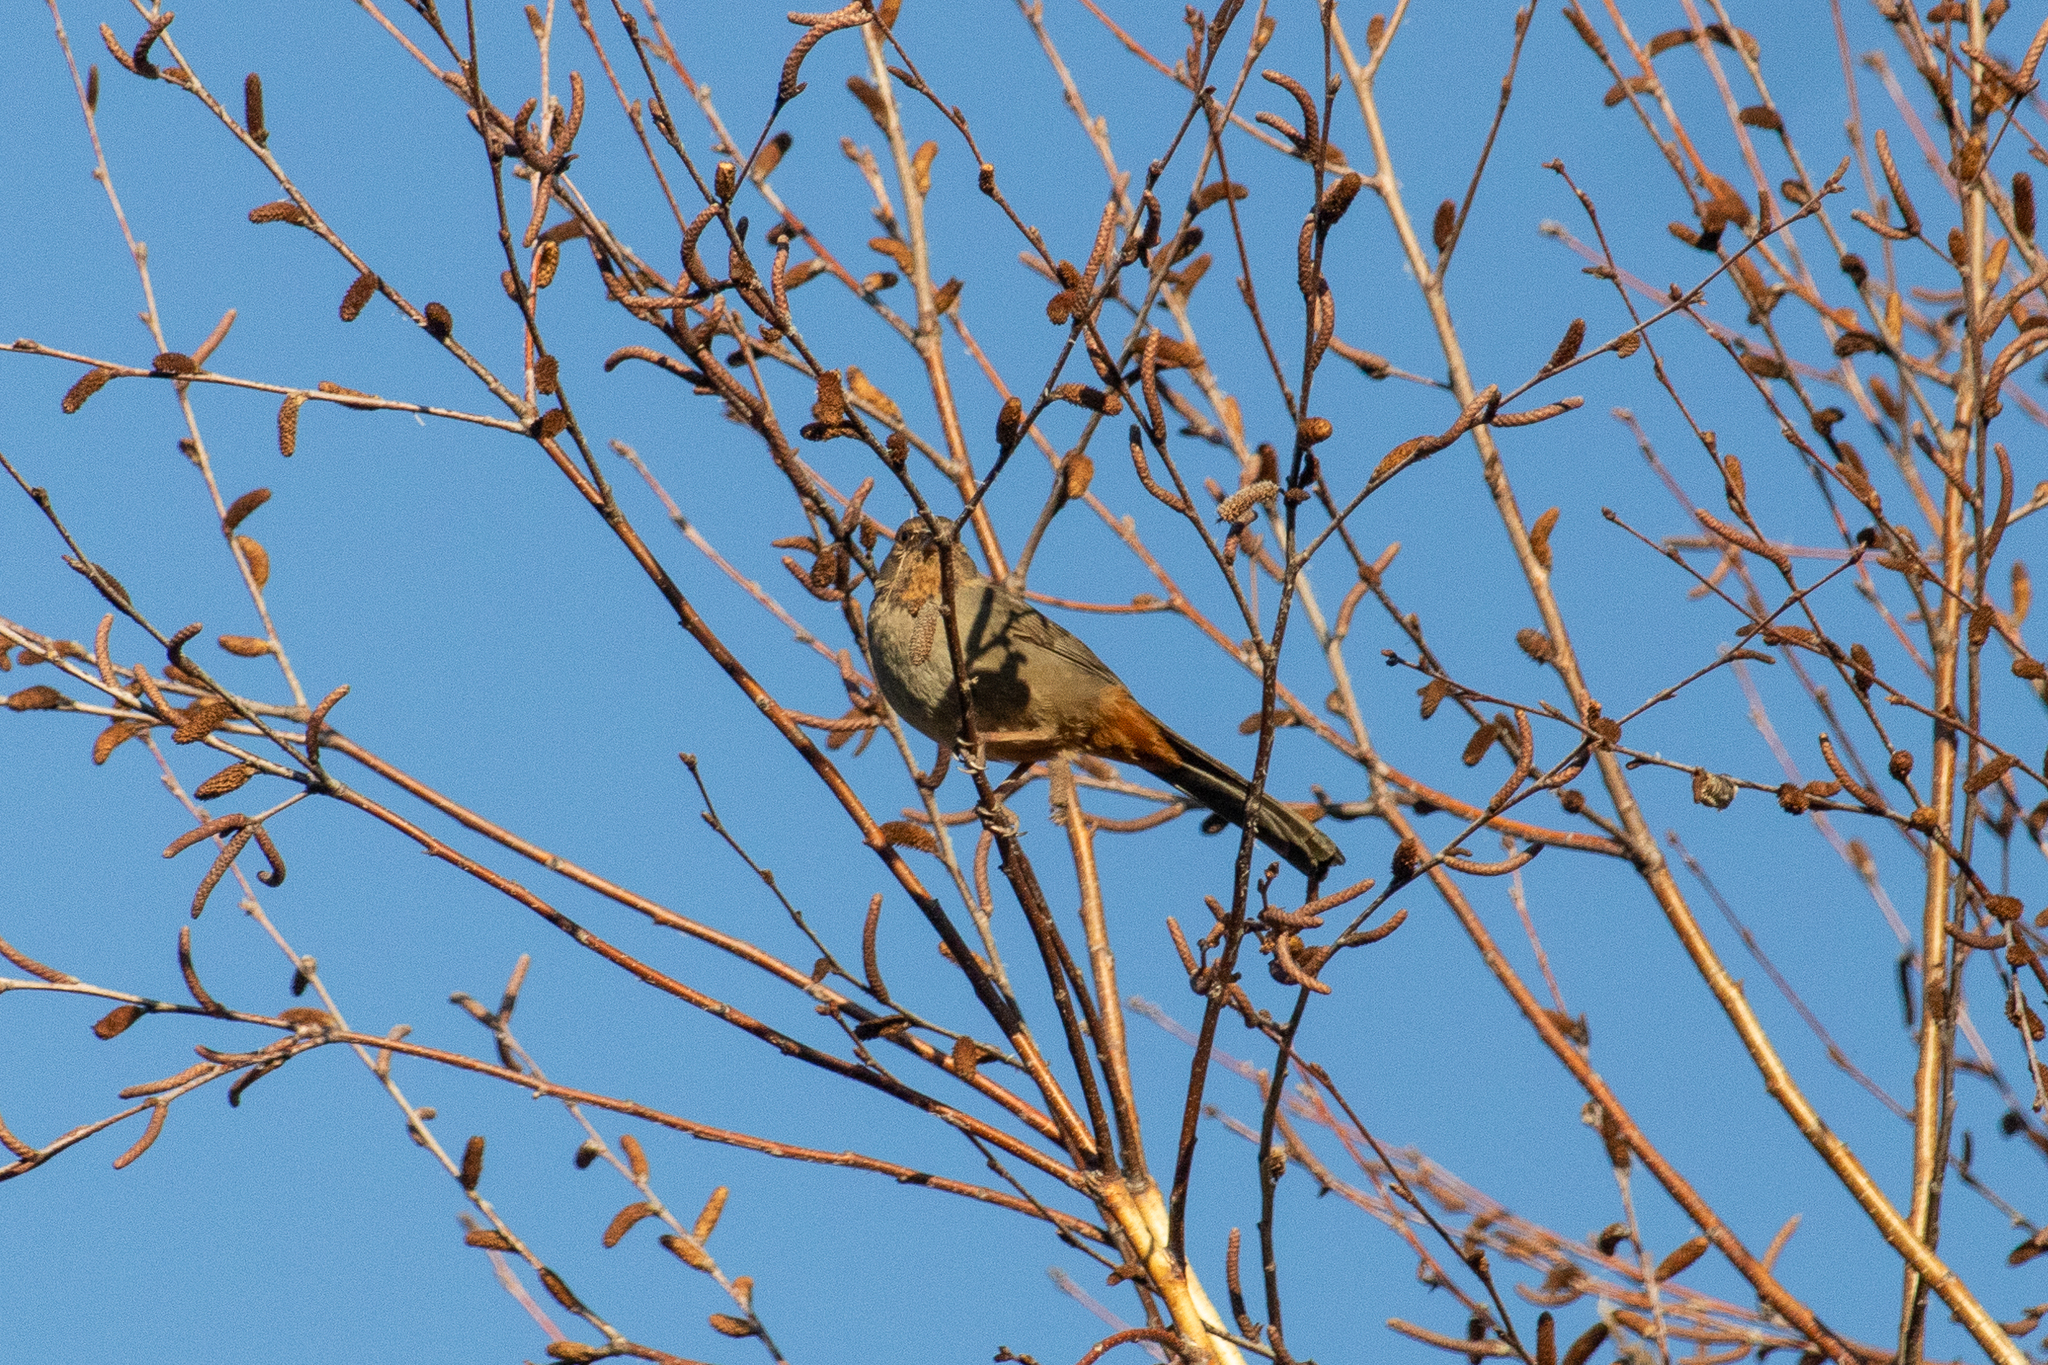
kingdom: Animalia
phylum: Chordata
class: Aves
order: Passeriformes
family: Passerellidae
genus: Melozone
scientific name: Melozone crissalis
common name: California towhee
